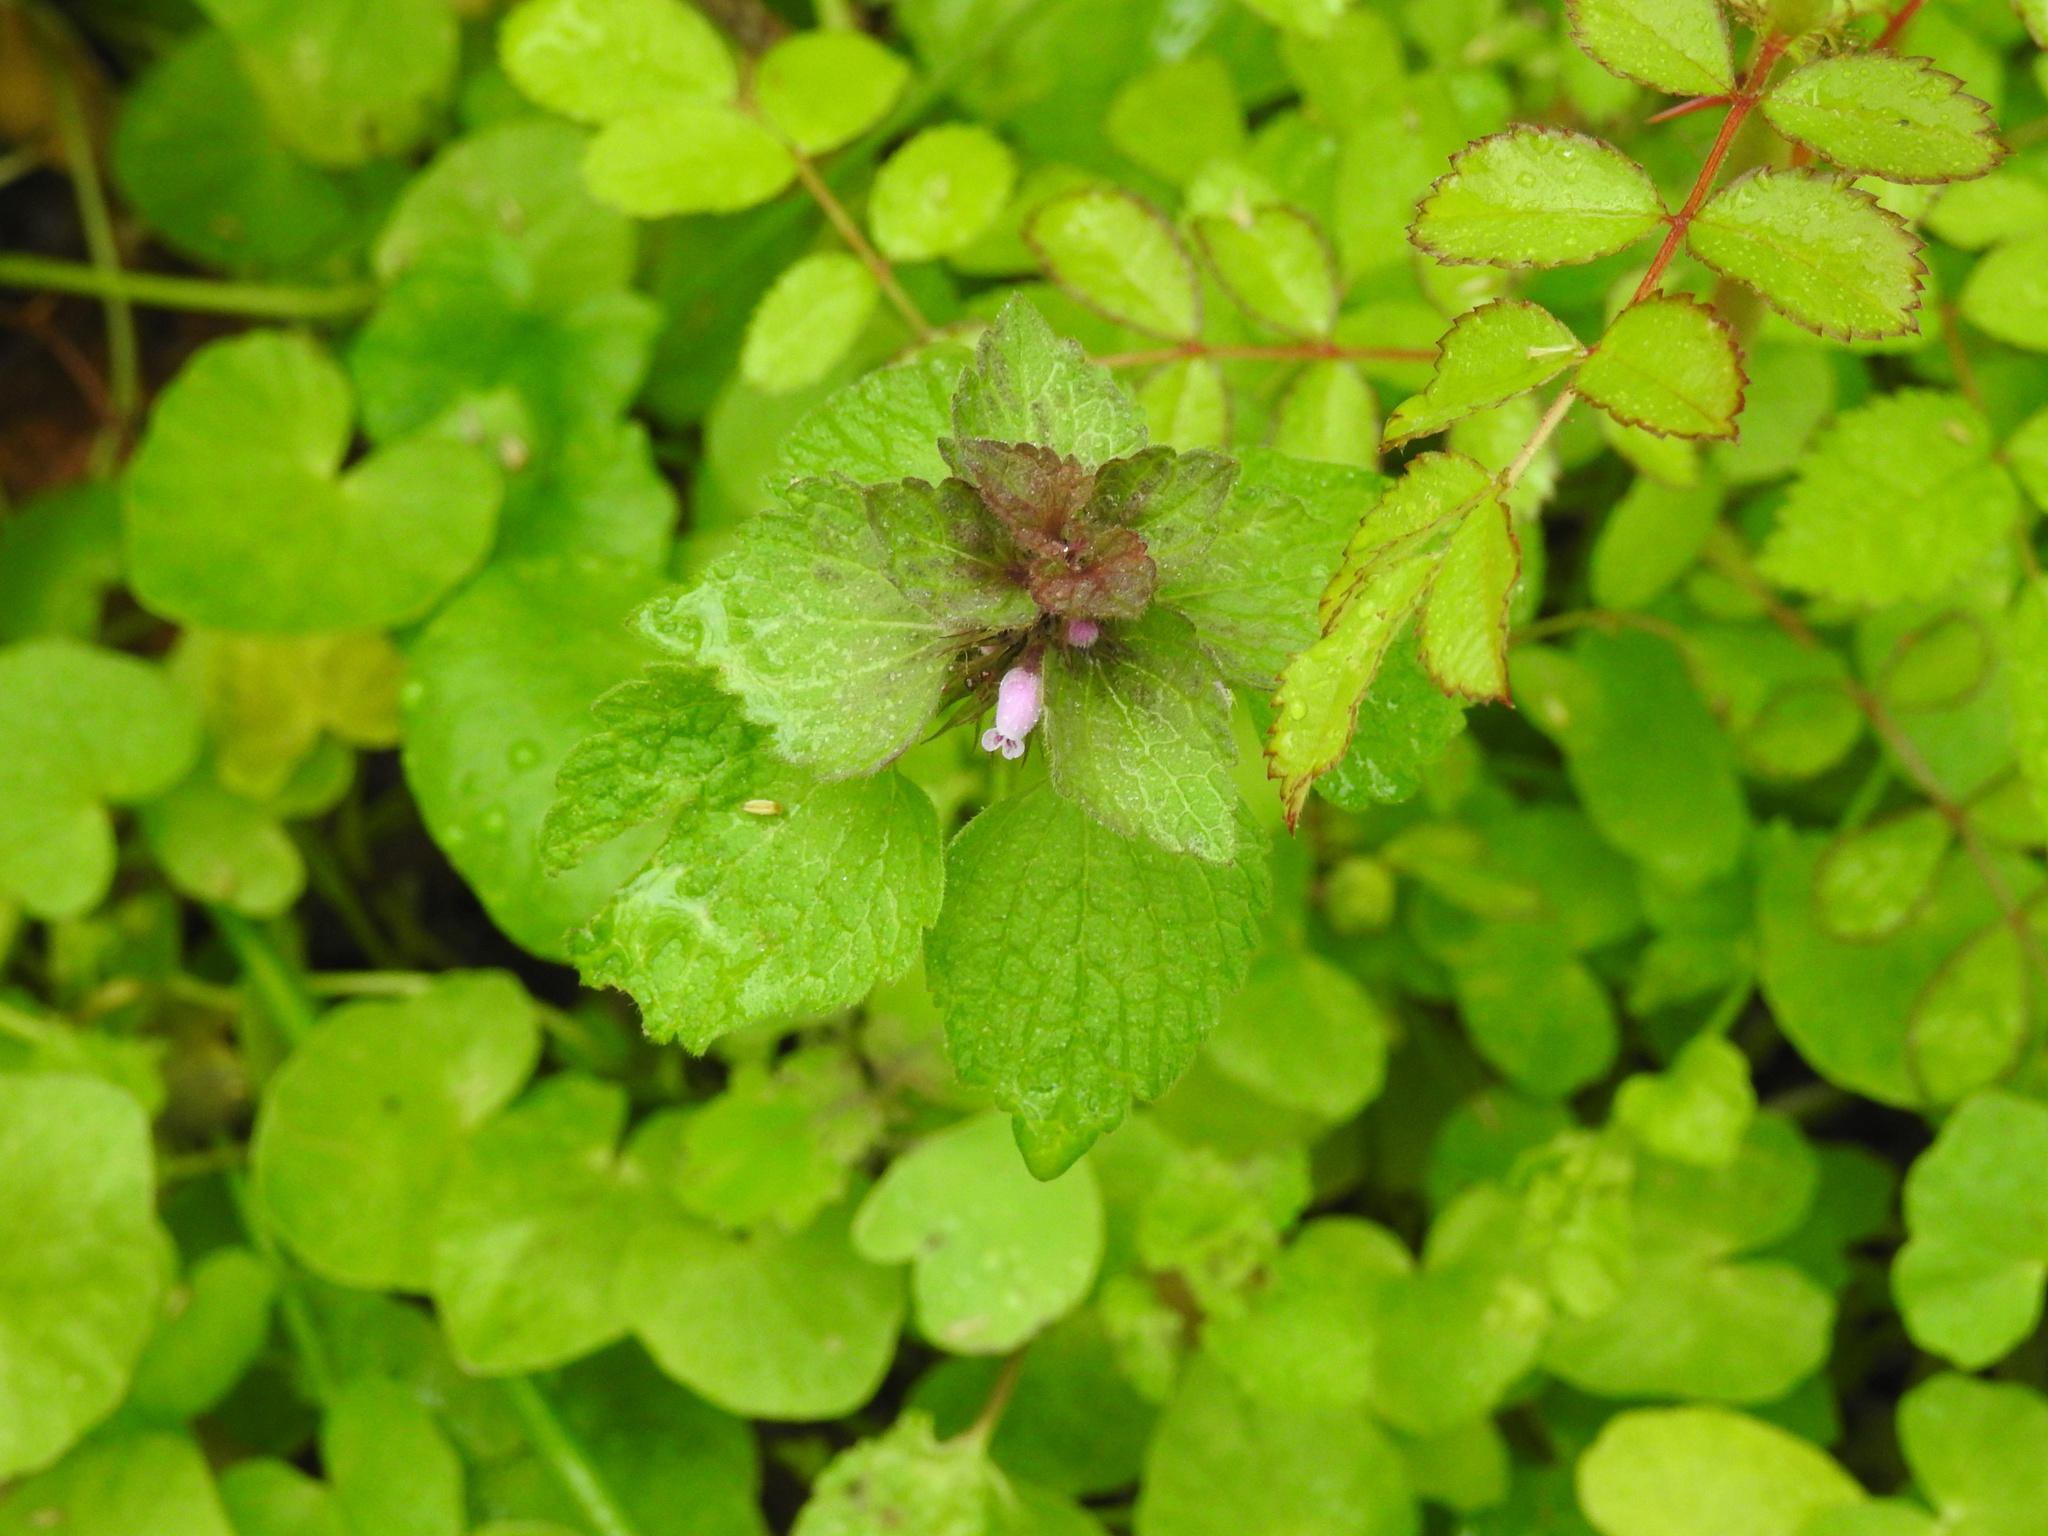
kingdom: Plantae
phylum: Tracheophyta
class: Magnoliopsida
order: Lamiales
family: Lamiaceae
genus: Lamium
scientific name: Lamium purpureum
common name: Red dead-nettle
